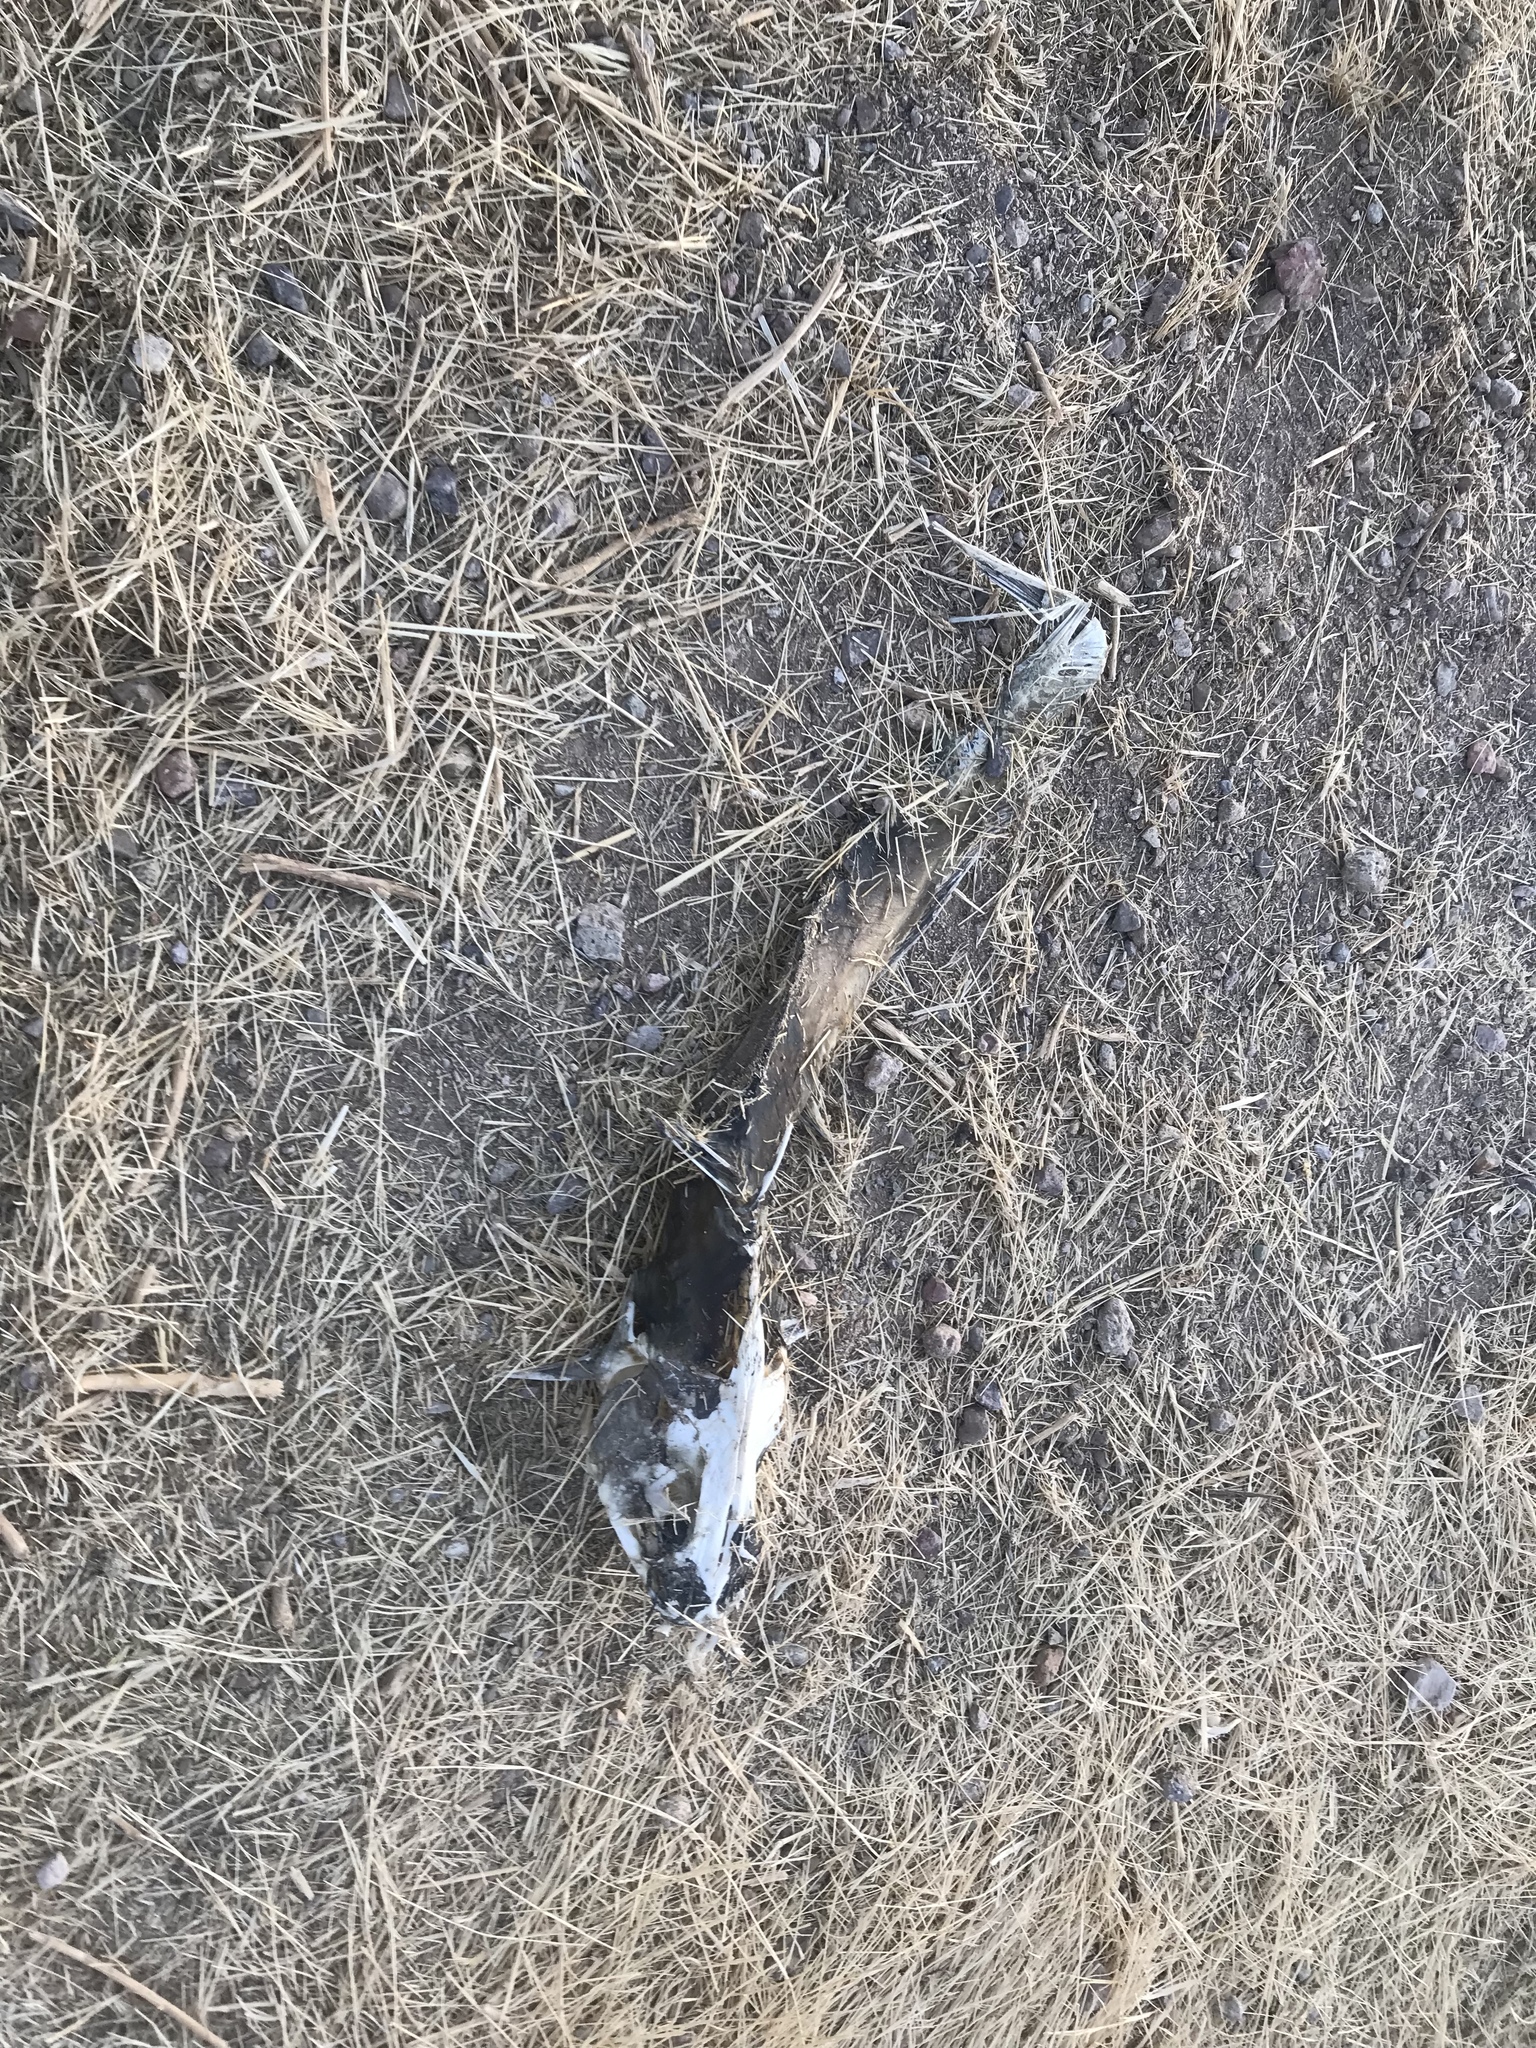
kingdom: Animalia
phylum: Chordata
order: Siluriformes
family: Ictaluridae
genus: Ictalurus
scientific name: Ictalurus punctatus
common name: Channel catfish
